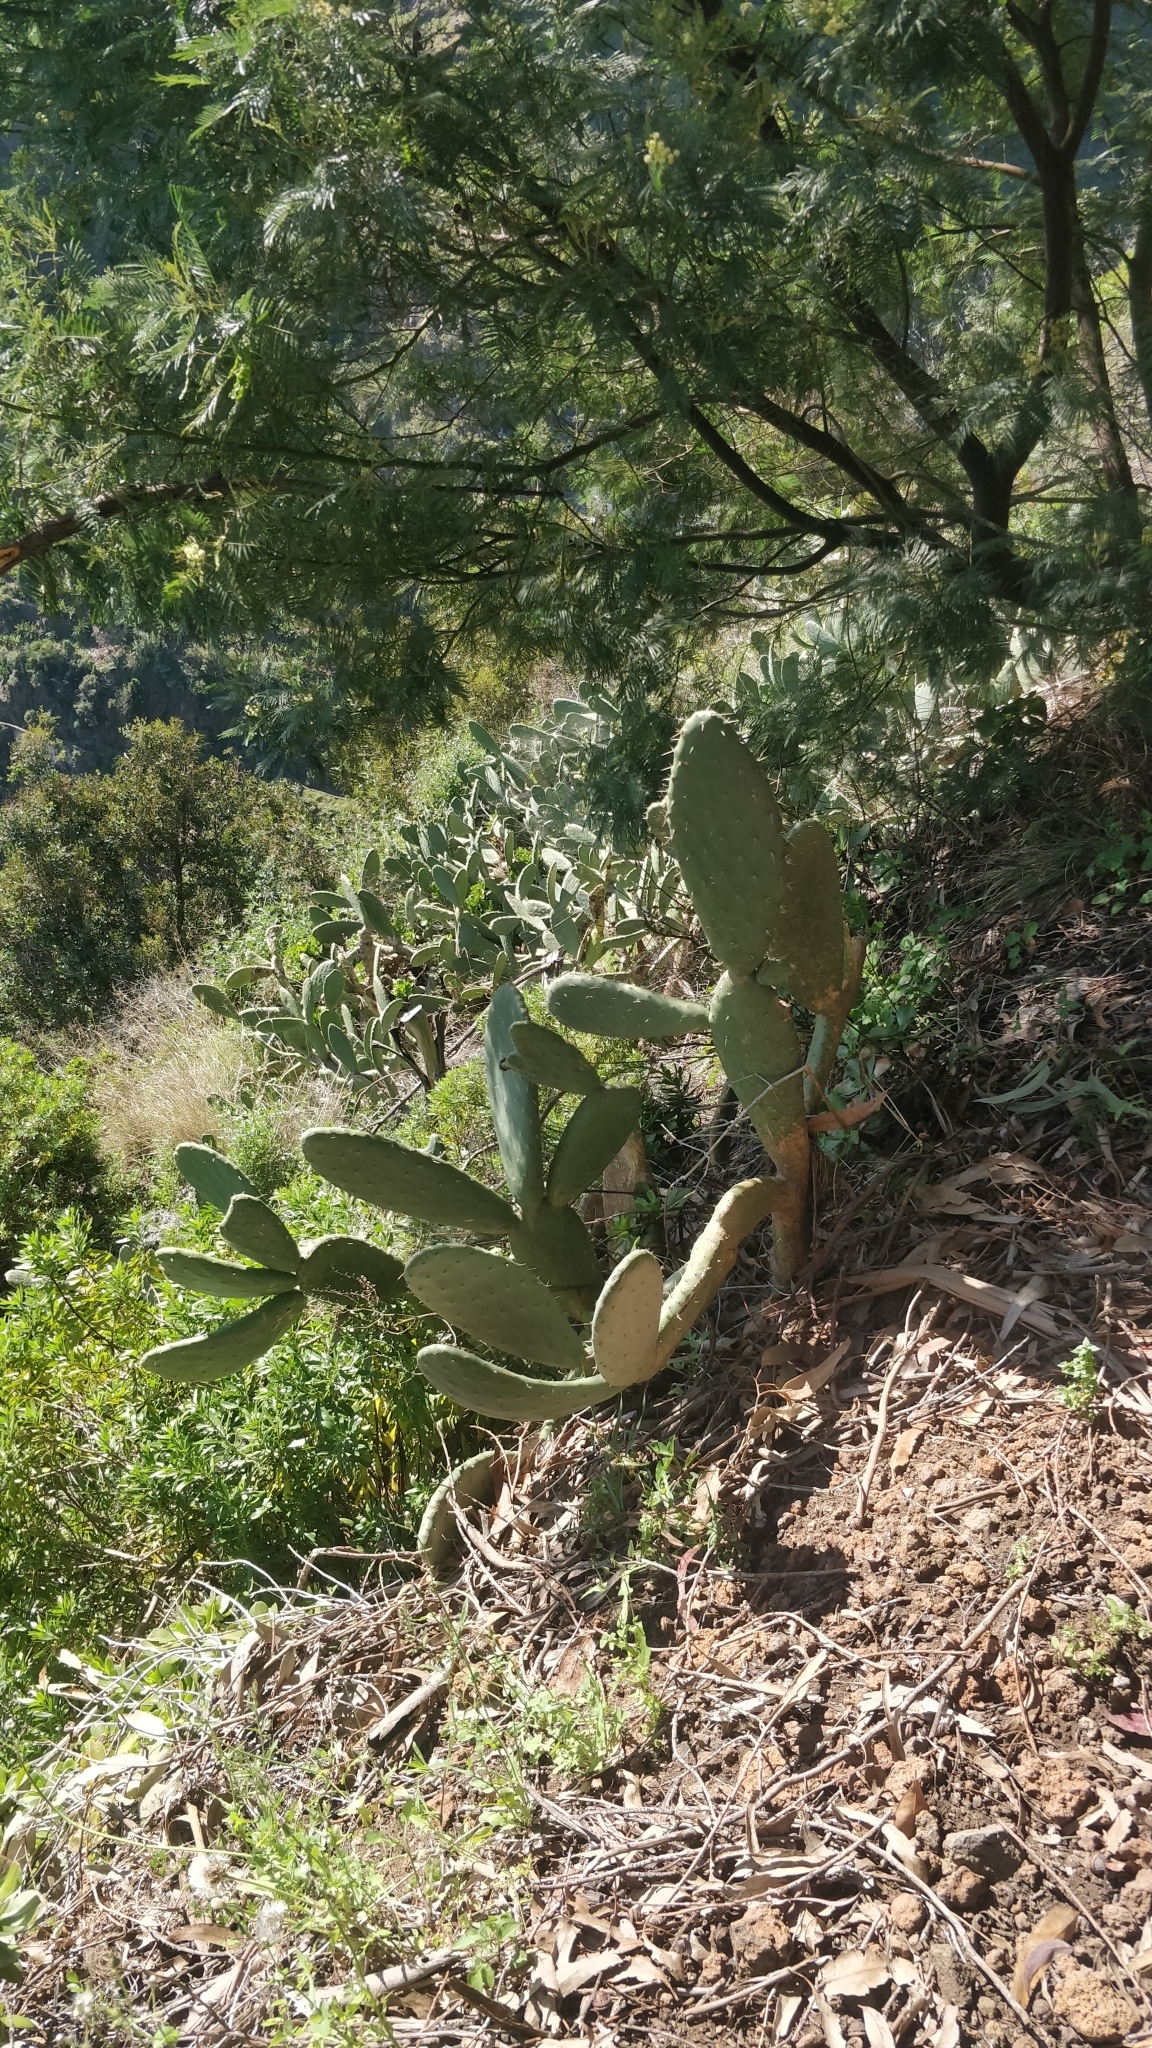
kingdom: Plantae
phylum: Tracheophyta
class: Magnoliopsida
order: Caryophyllales
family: Cactaceae
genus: Opuntia
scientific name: Opuntia ficus-indica
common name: Barbary fig
